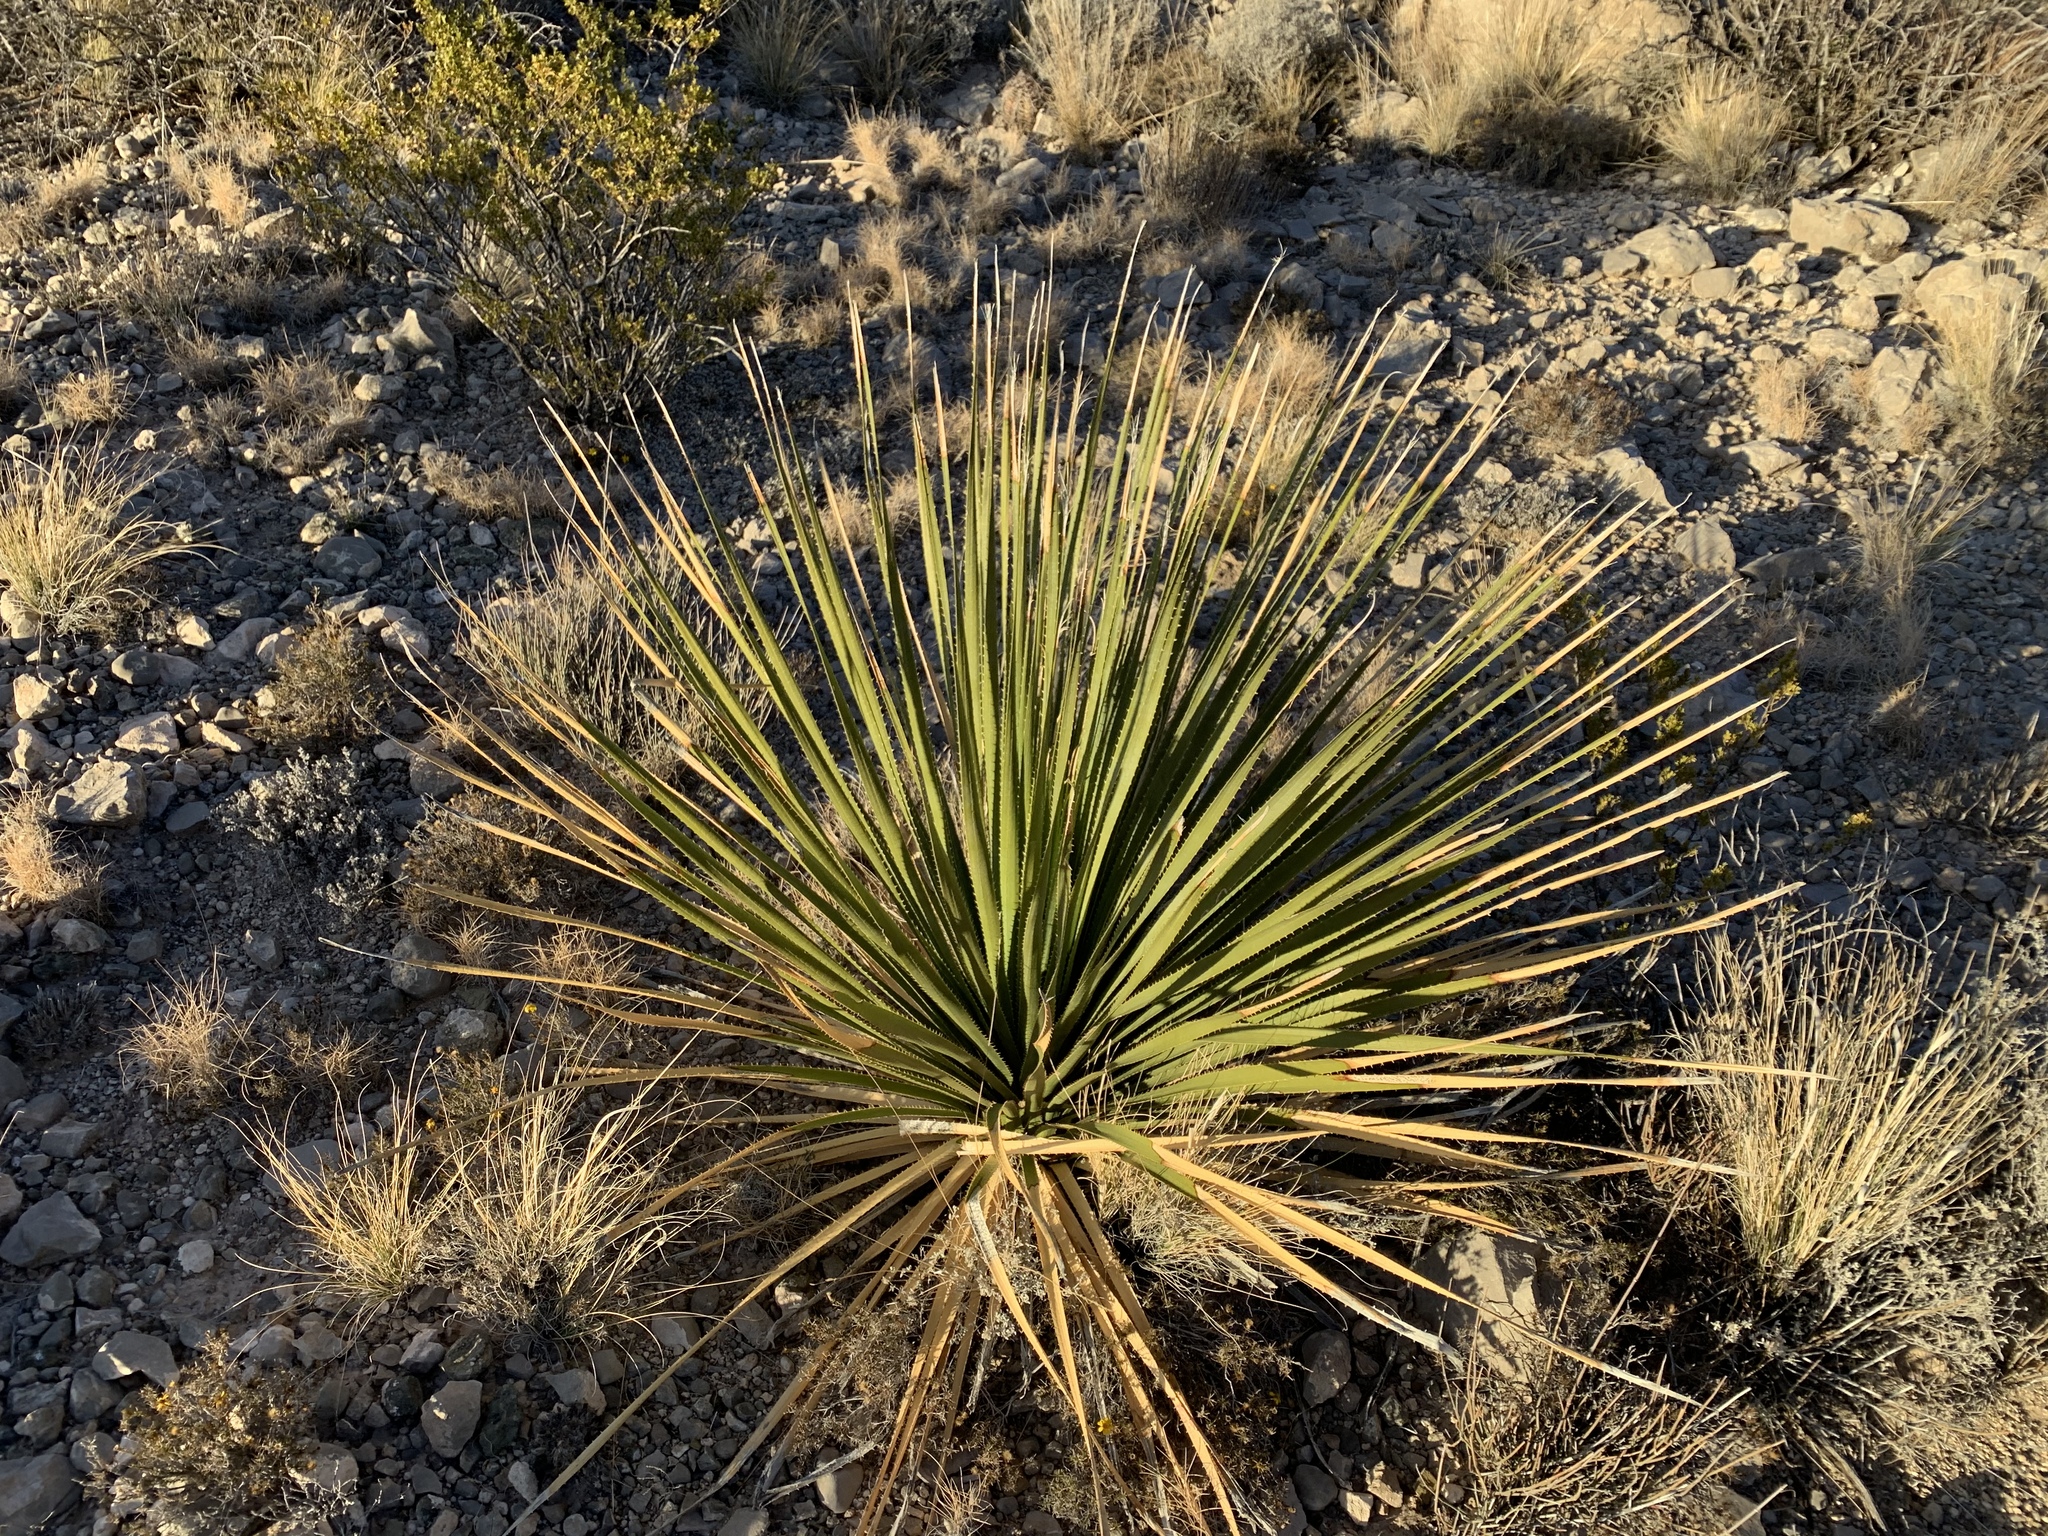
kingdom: Plantae
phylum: Tracheophyta
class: Liliopsida
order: Asparagales
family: Asparagaceae
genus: Dasylirion
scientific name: Dasylirion wheeleri
